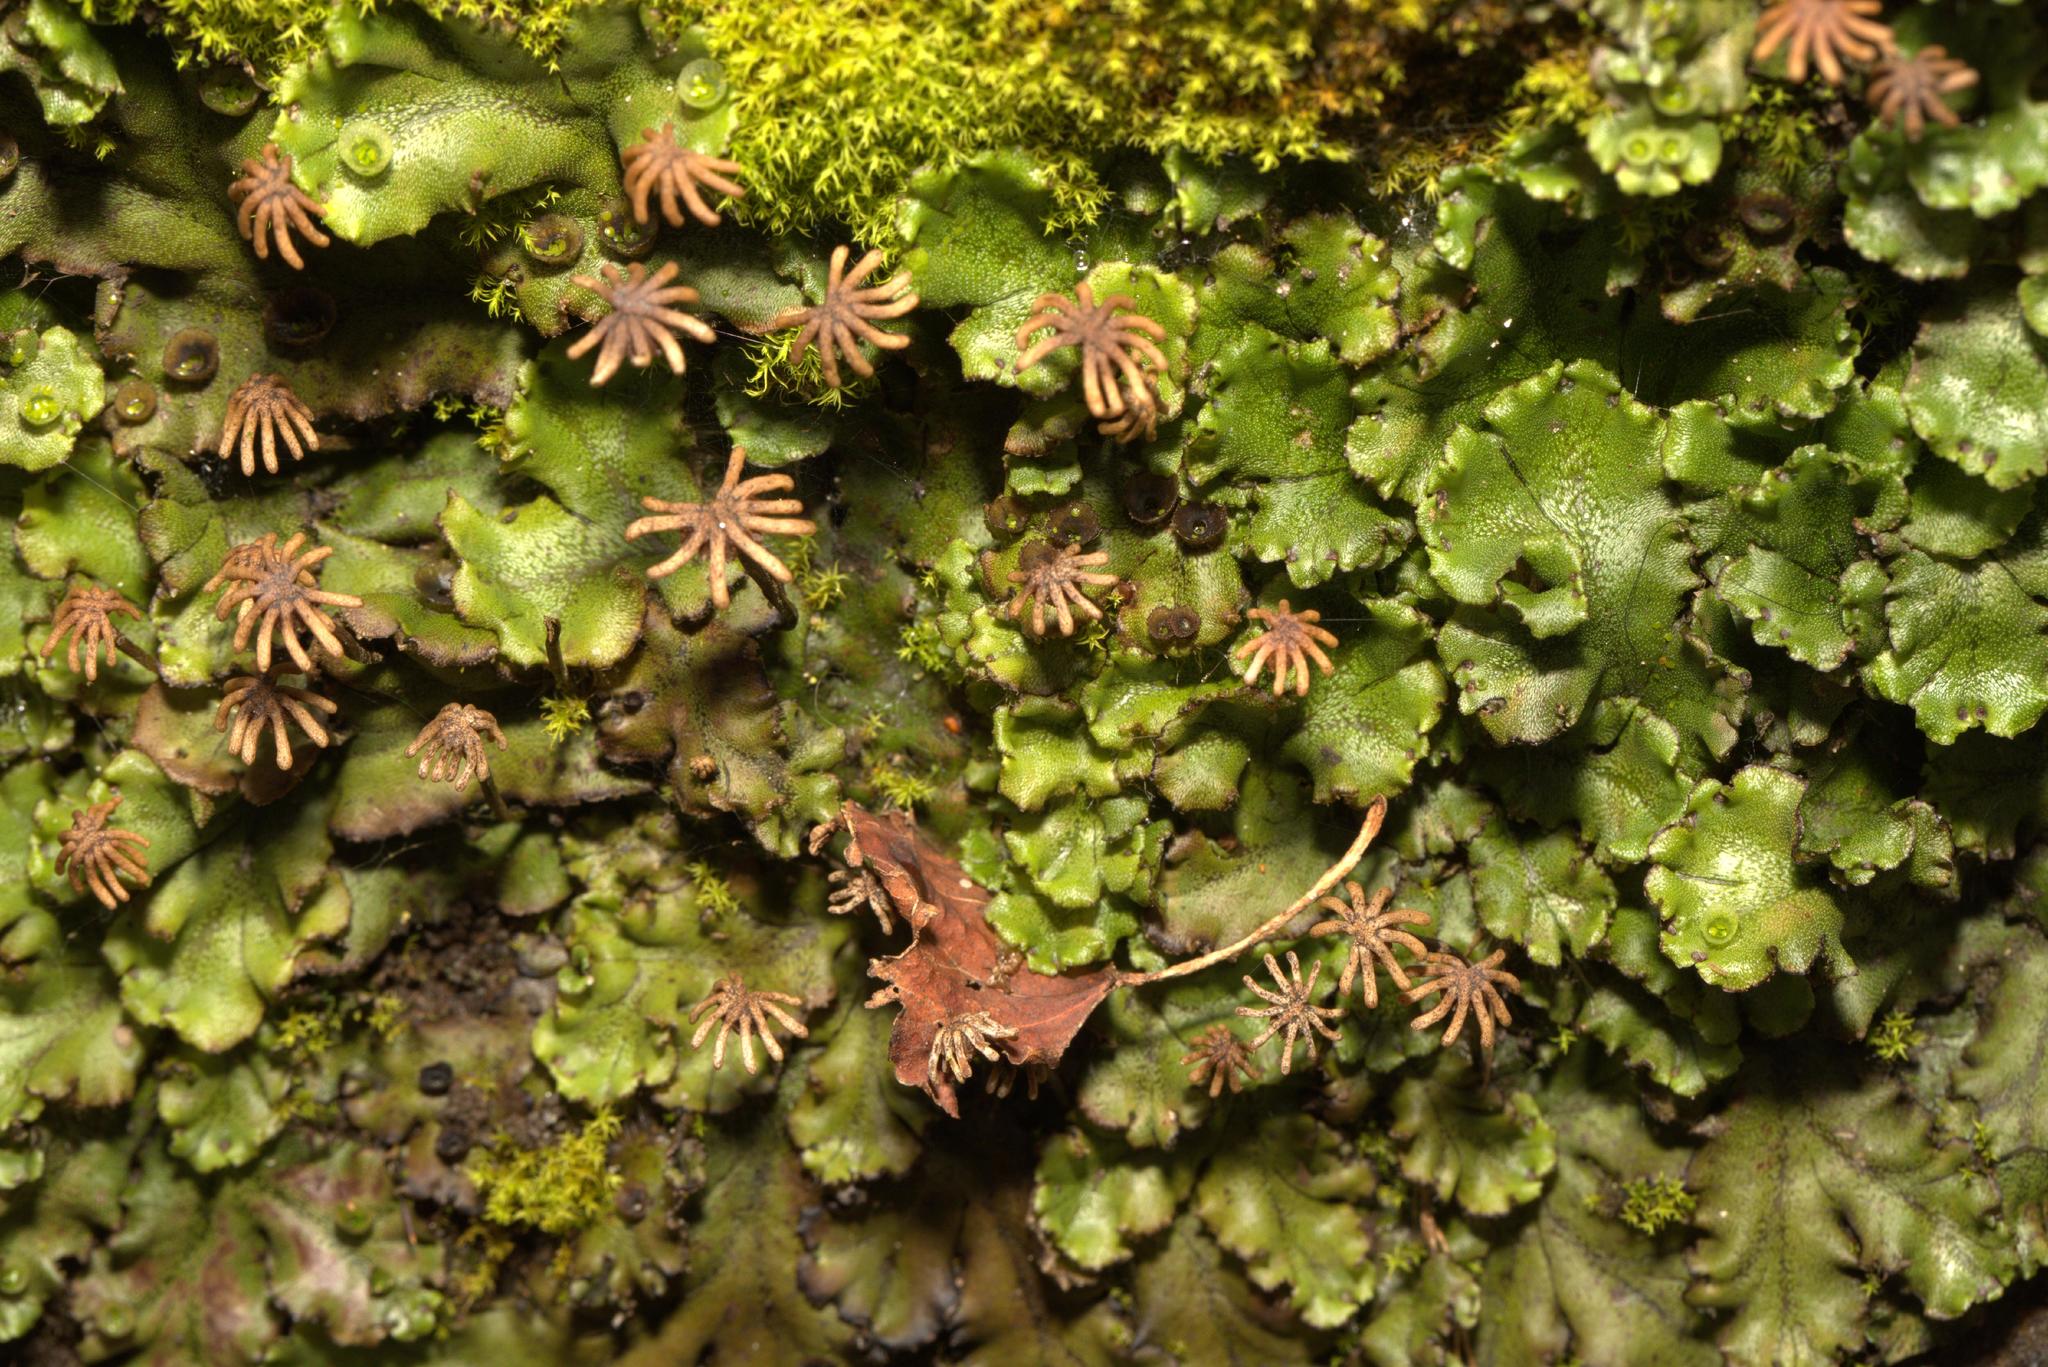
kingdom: Plantae
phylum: Marchantiophyta
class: Marchantiopsida
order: Marchantiales
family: Marchantiaceae
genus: Marchantia
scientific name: Marchantia polymorpha
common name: Common liverwort
